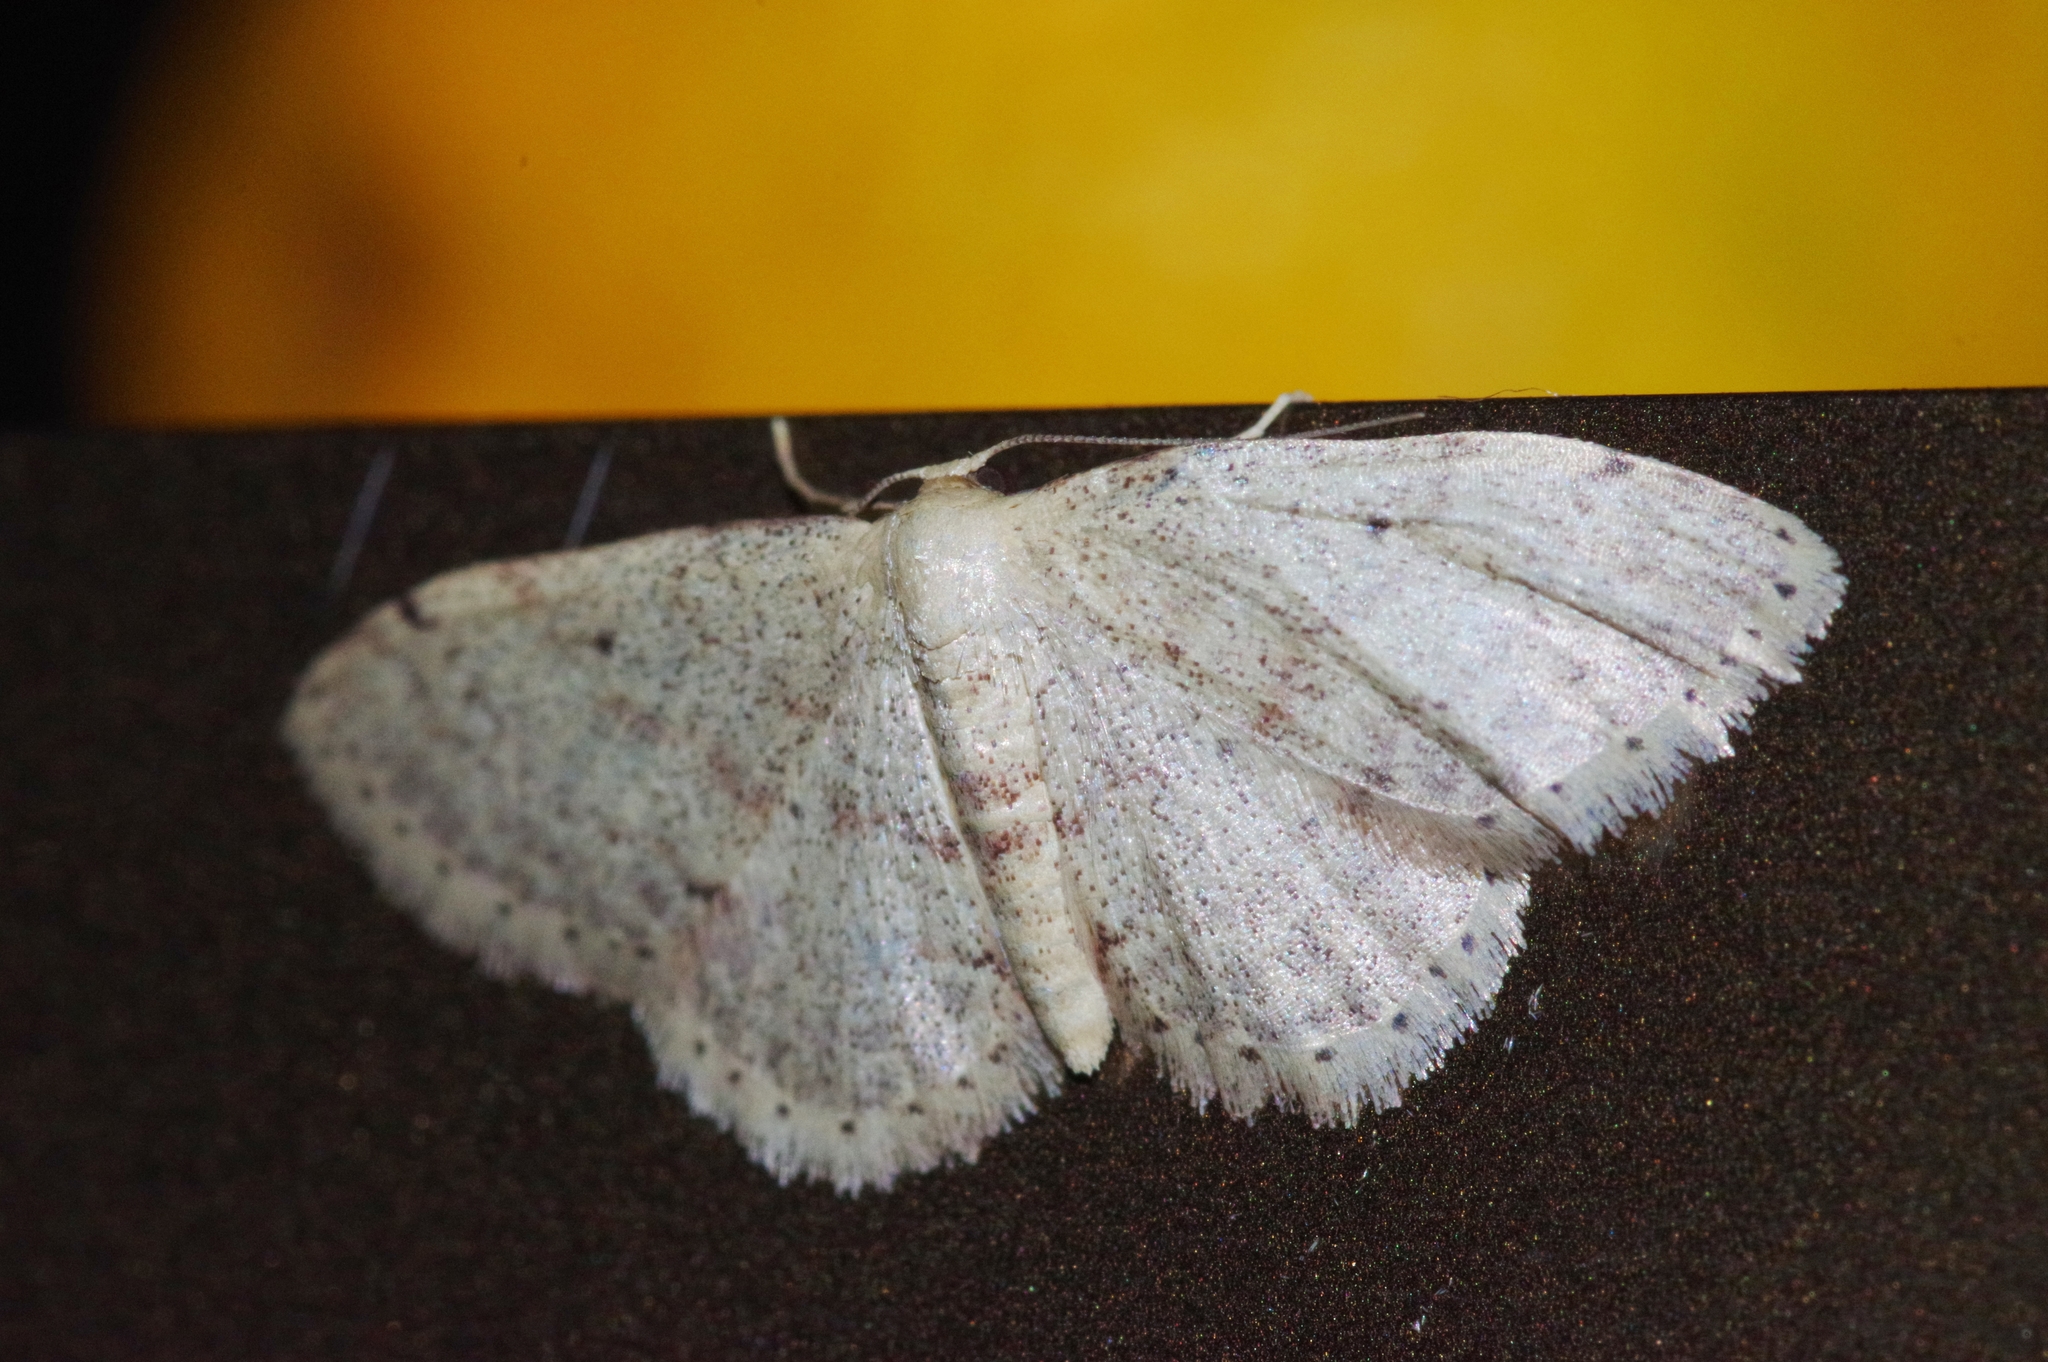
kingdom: Animalia
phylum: Arthropoda
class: Insecta
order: Lepidoptera
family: Geometridae
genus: Idaea
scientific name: Idaea sakuraii
